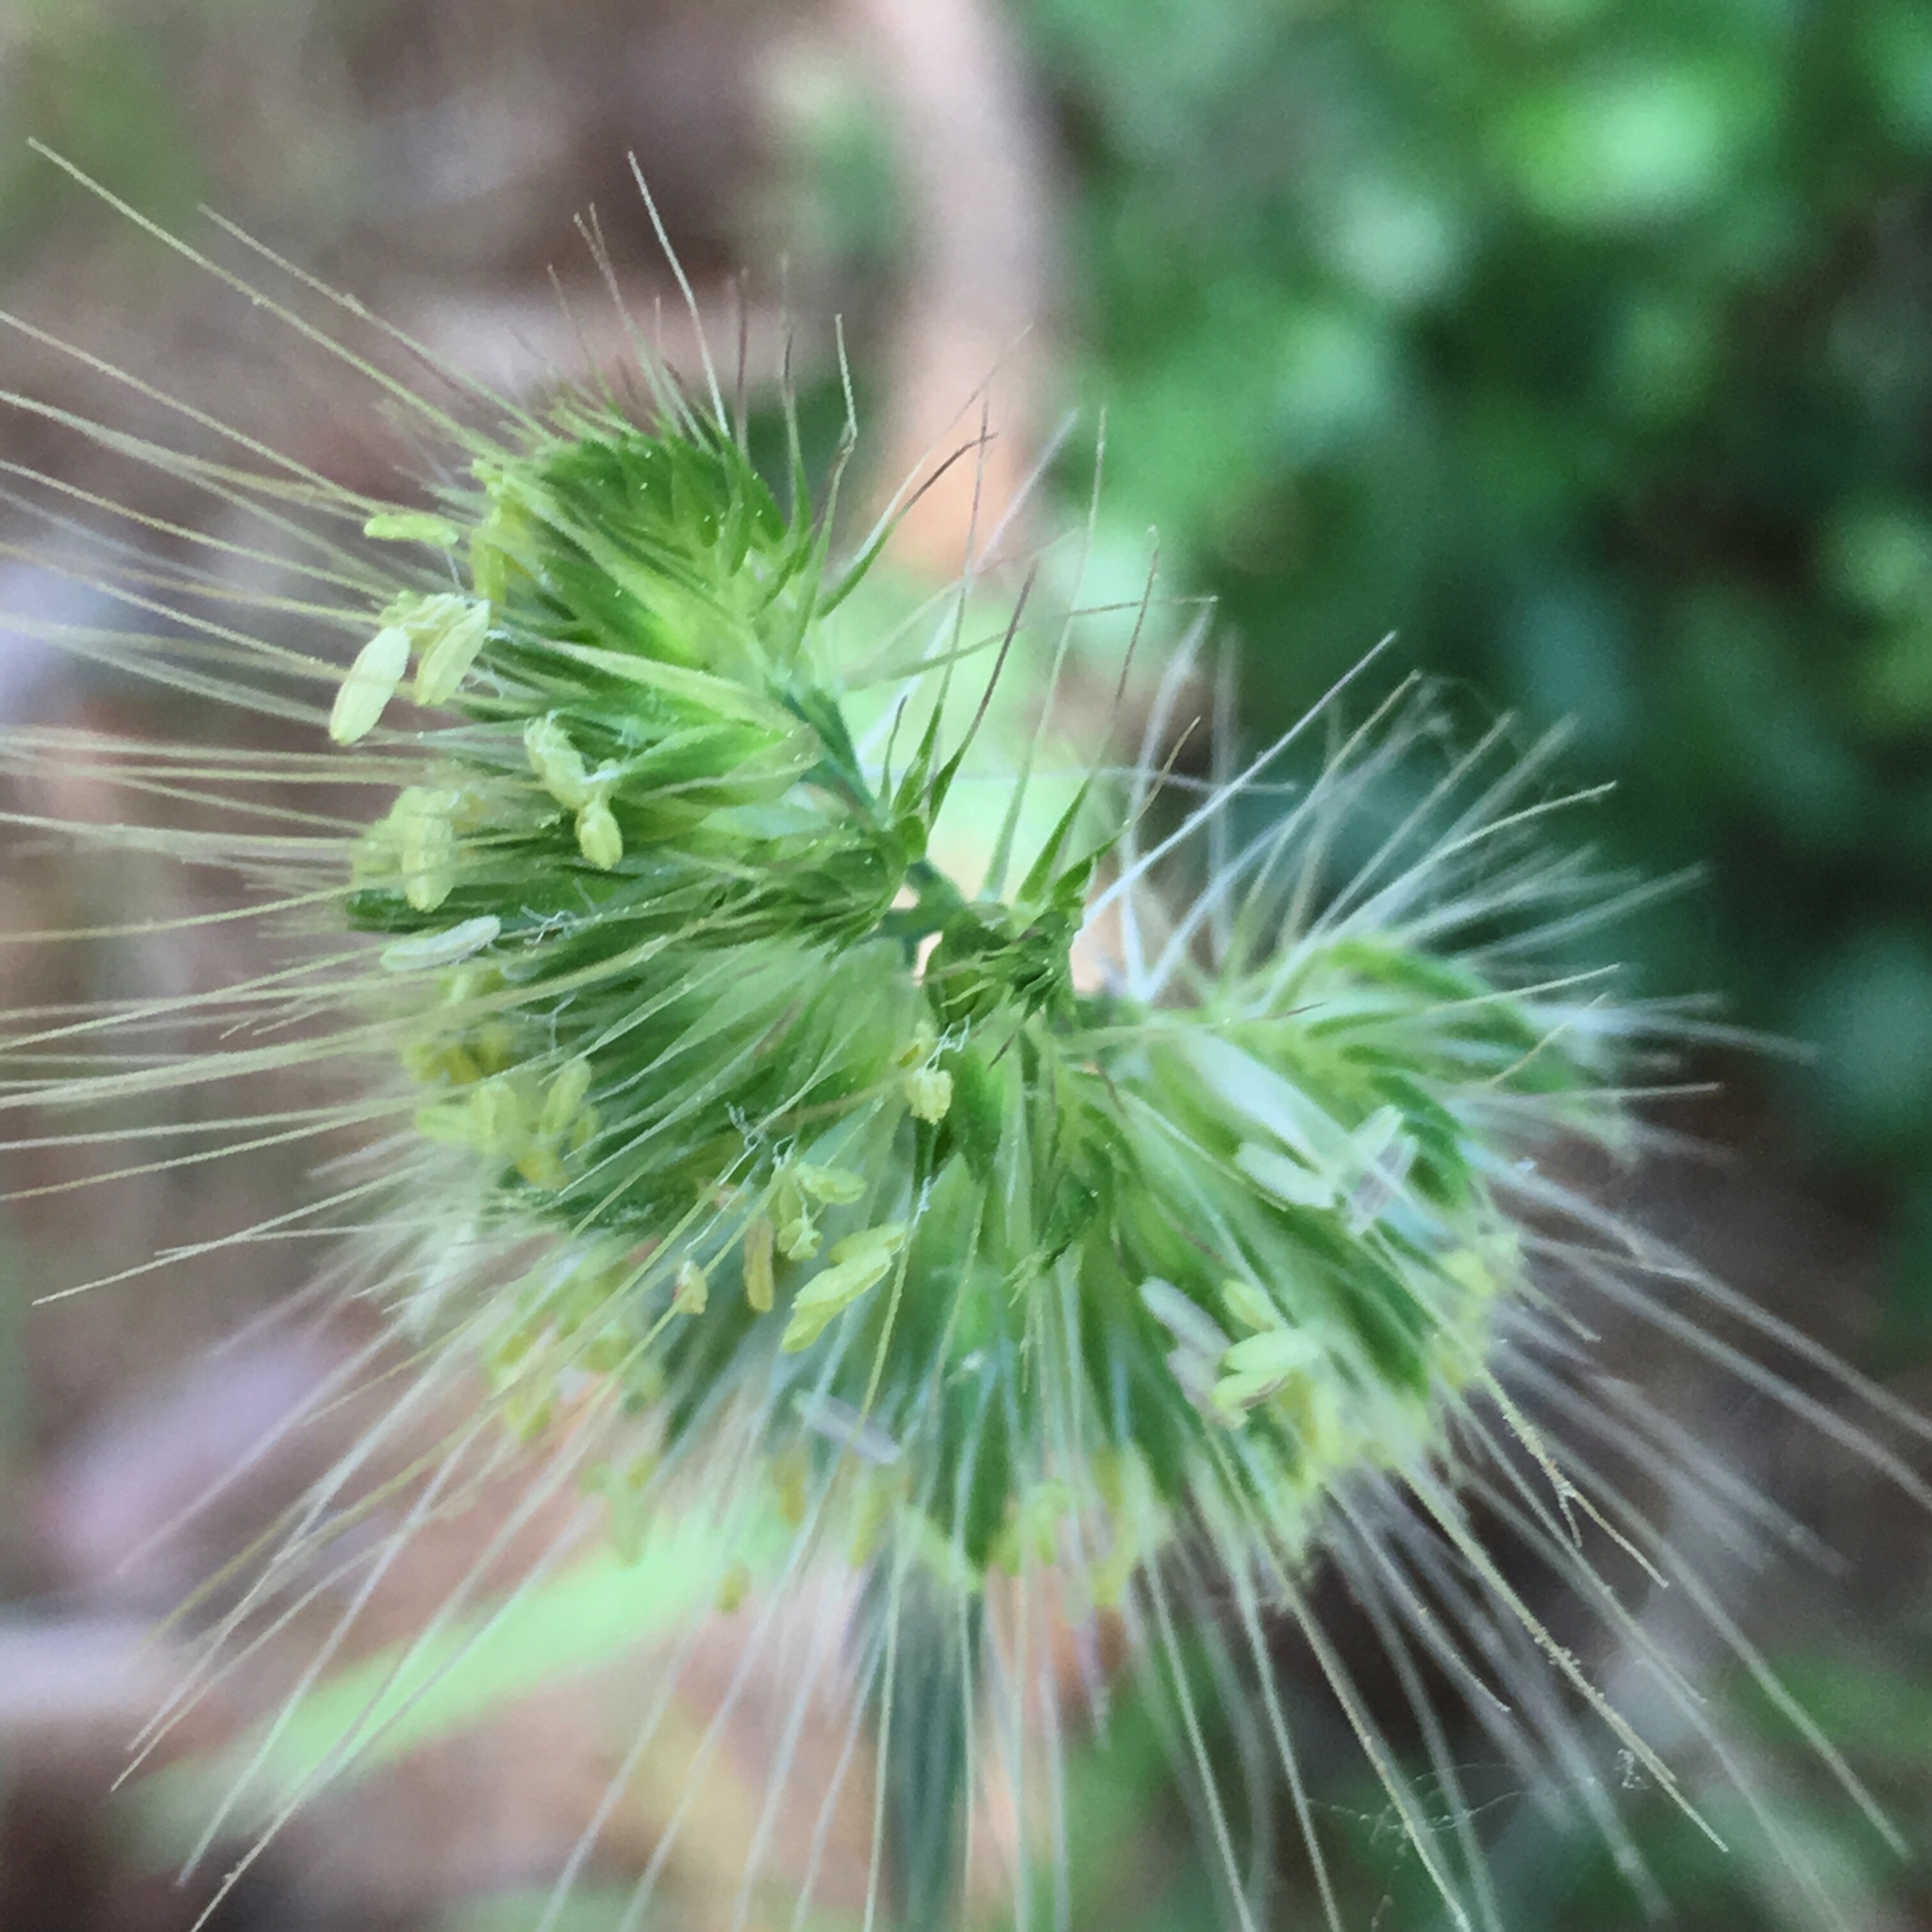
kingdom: Plantae
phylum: Tracheophyta
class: Liliopsida
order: Poales
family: Poaceae
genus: Cynosurus
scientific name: Cynosurus echinatus
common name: Rough dog's-tail
